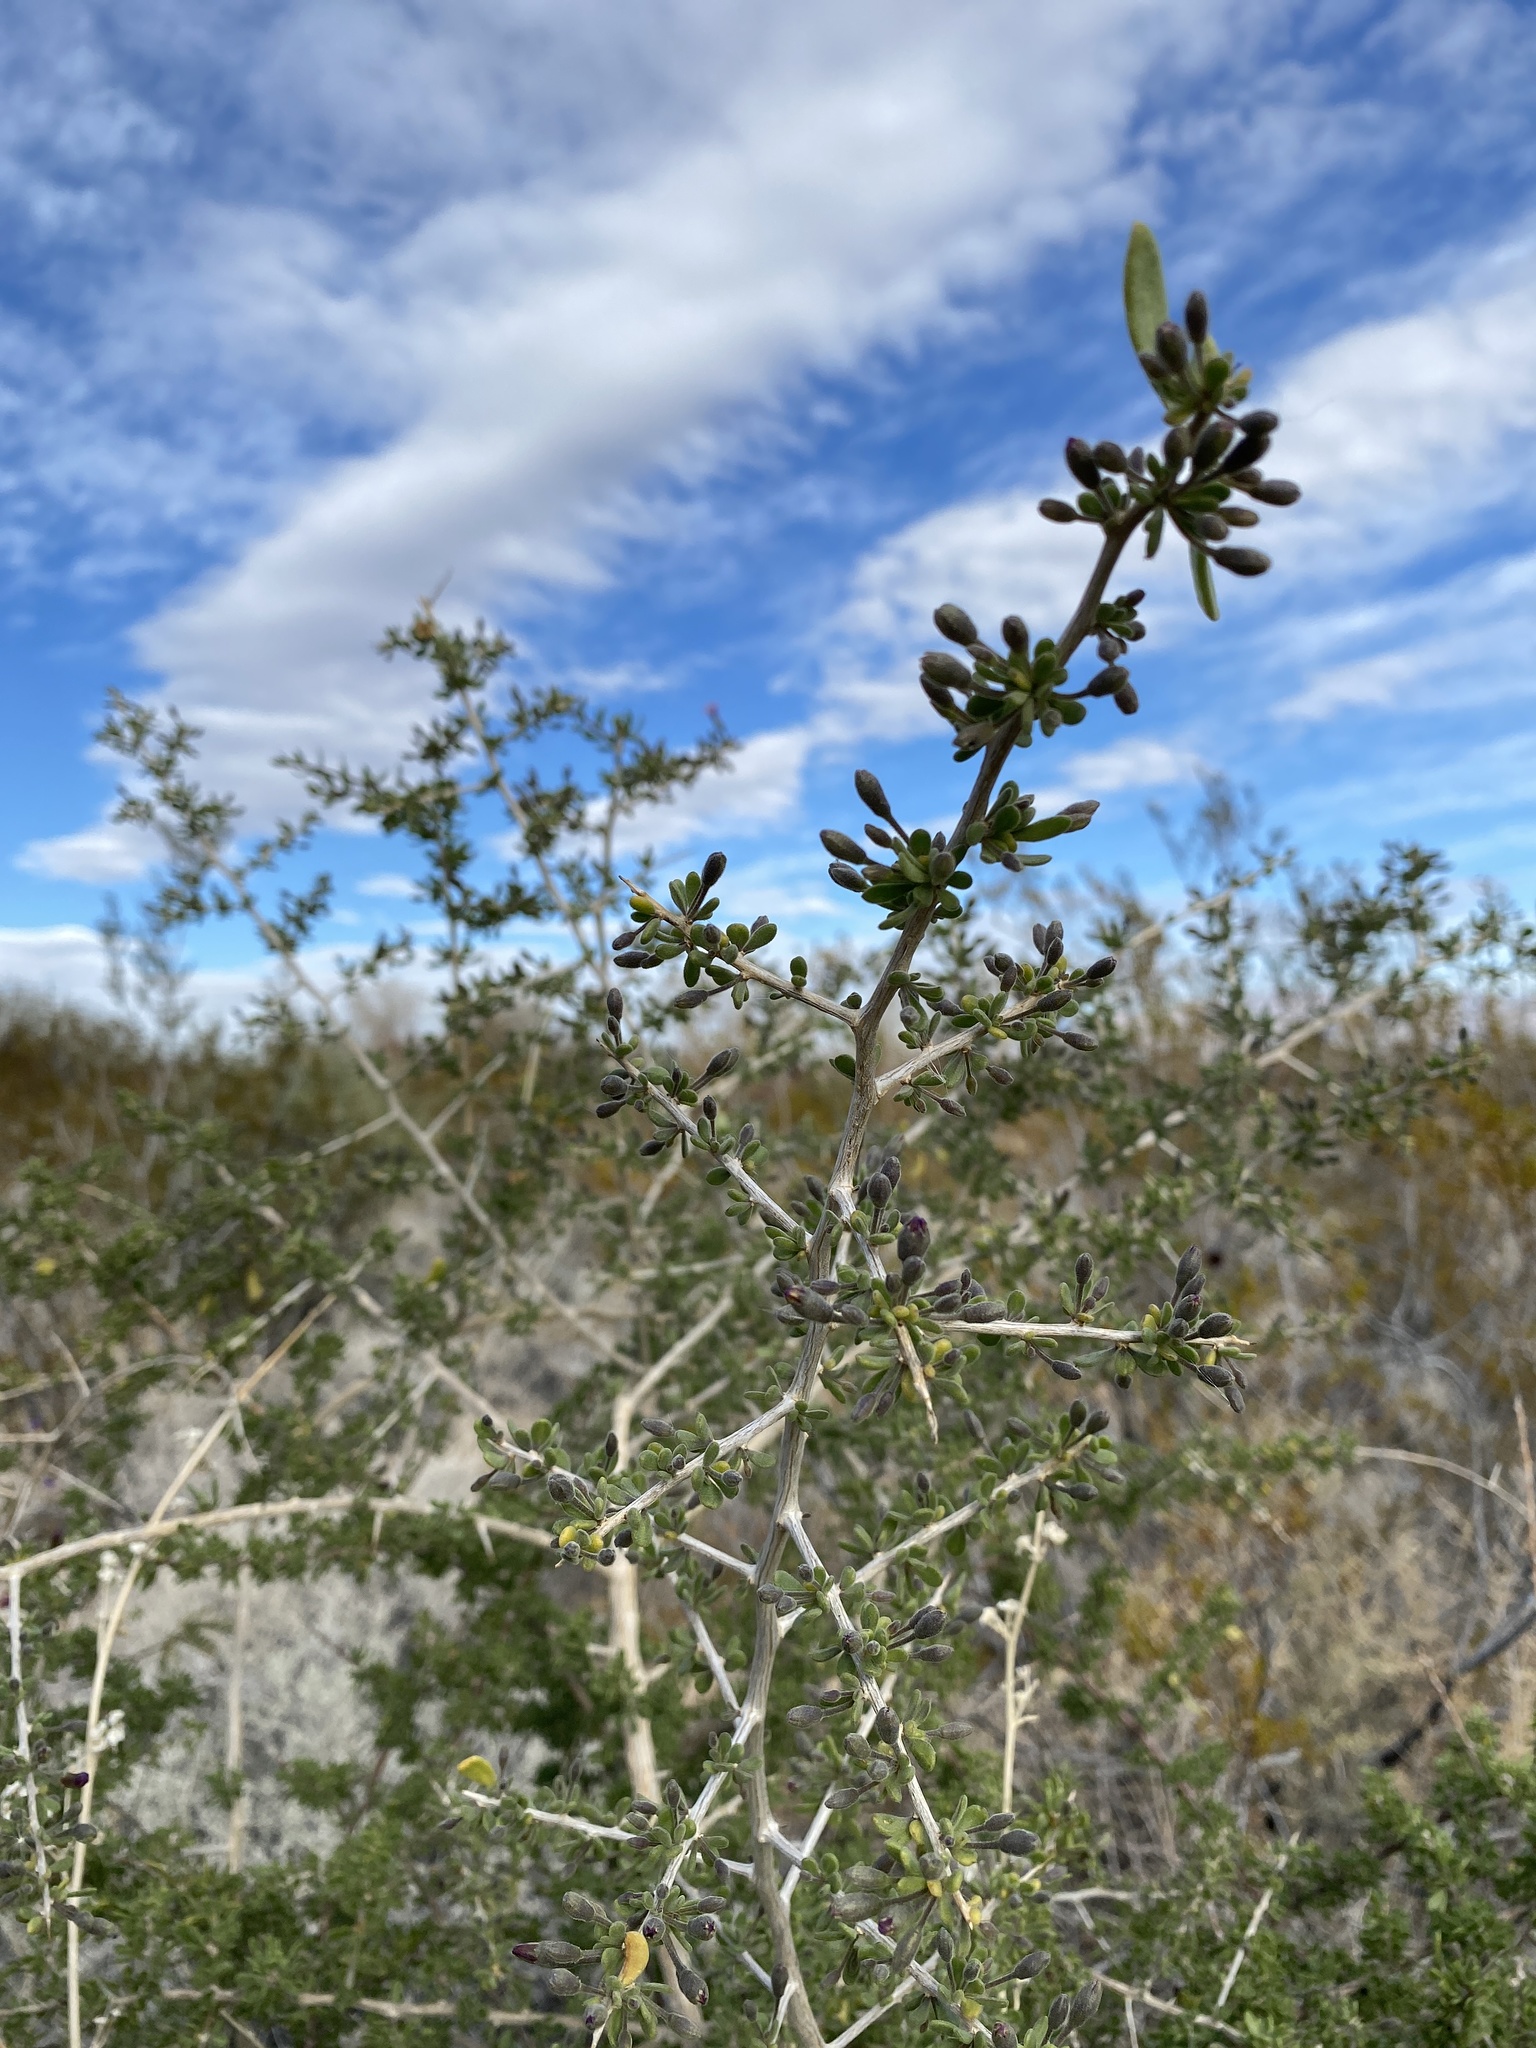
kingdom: Plantae
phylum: Tracheophyta
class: Magnoliopsida
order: Solanales
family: Solanaceae
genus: Lycium
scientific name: Lycium andersonii
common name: Water-jacket
